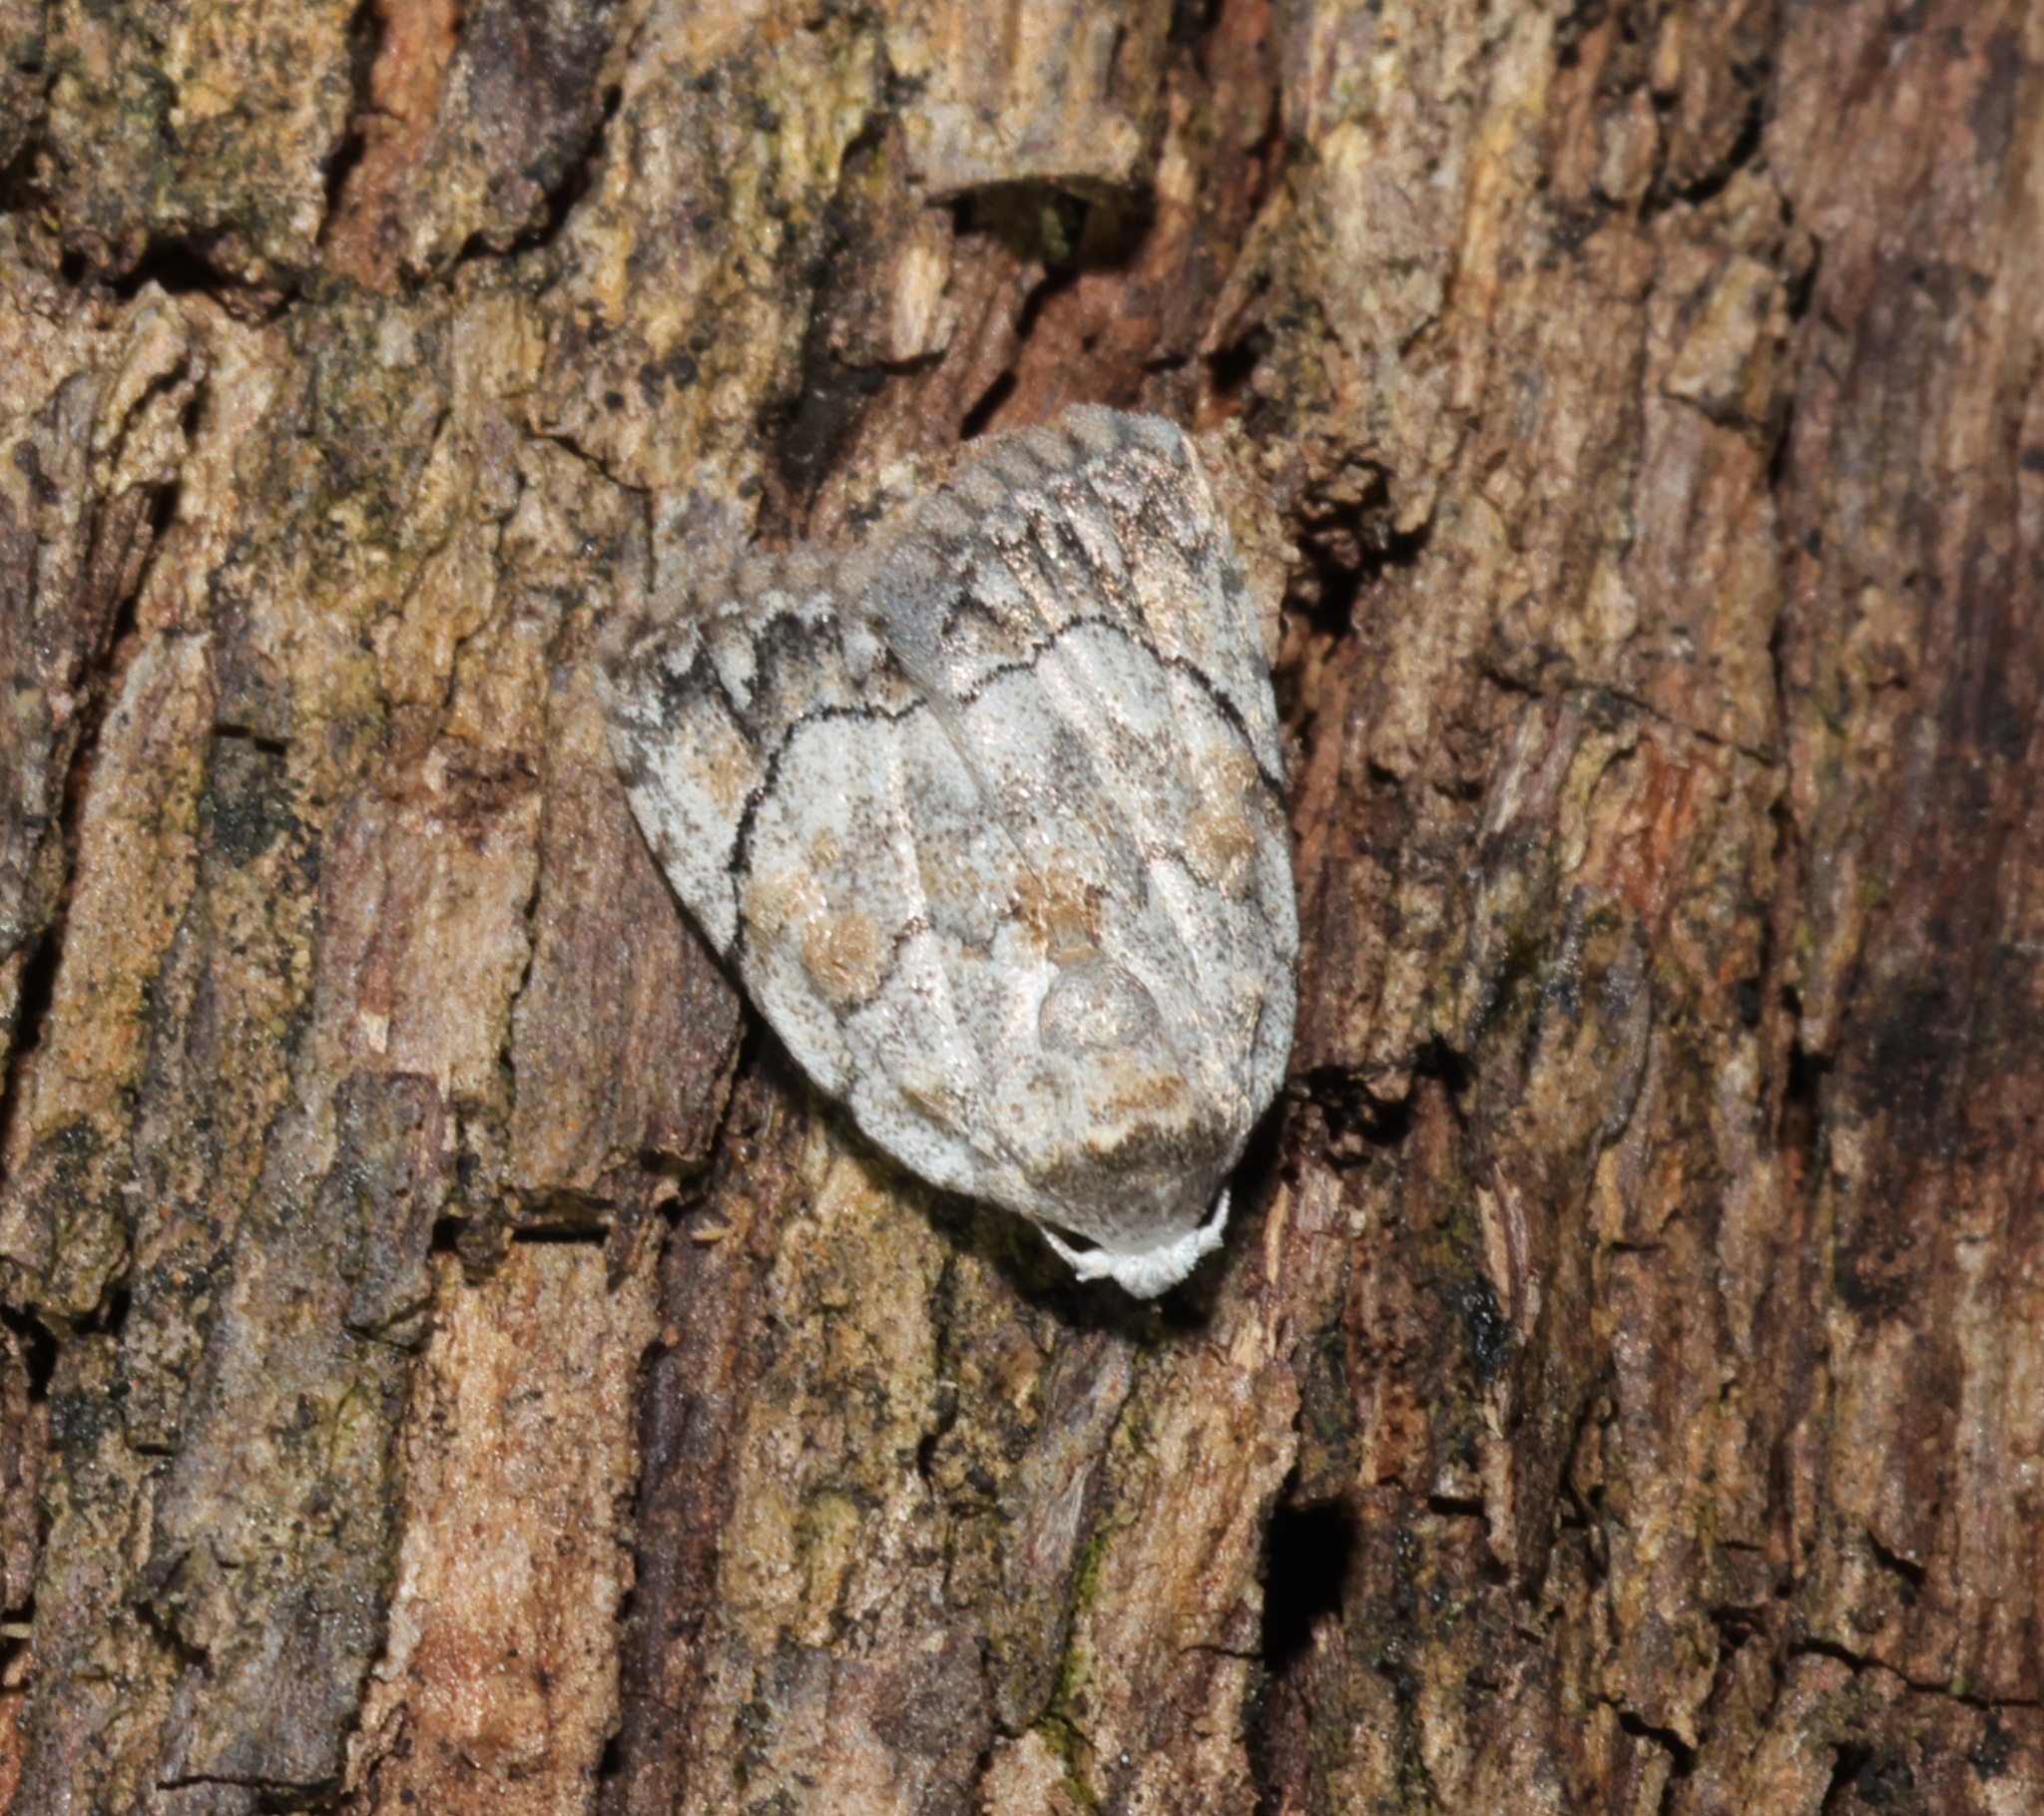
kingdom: Animalia
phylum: Arthropoda
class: Insecta
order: Lepidoptera
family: Nolidae
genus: Melanographia
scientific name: Melanographia flexilineata
